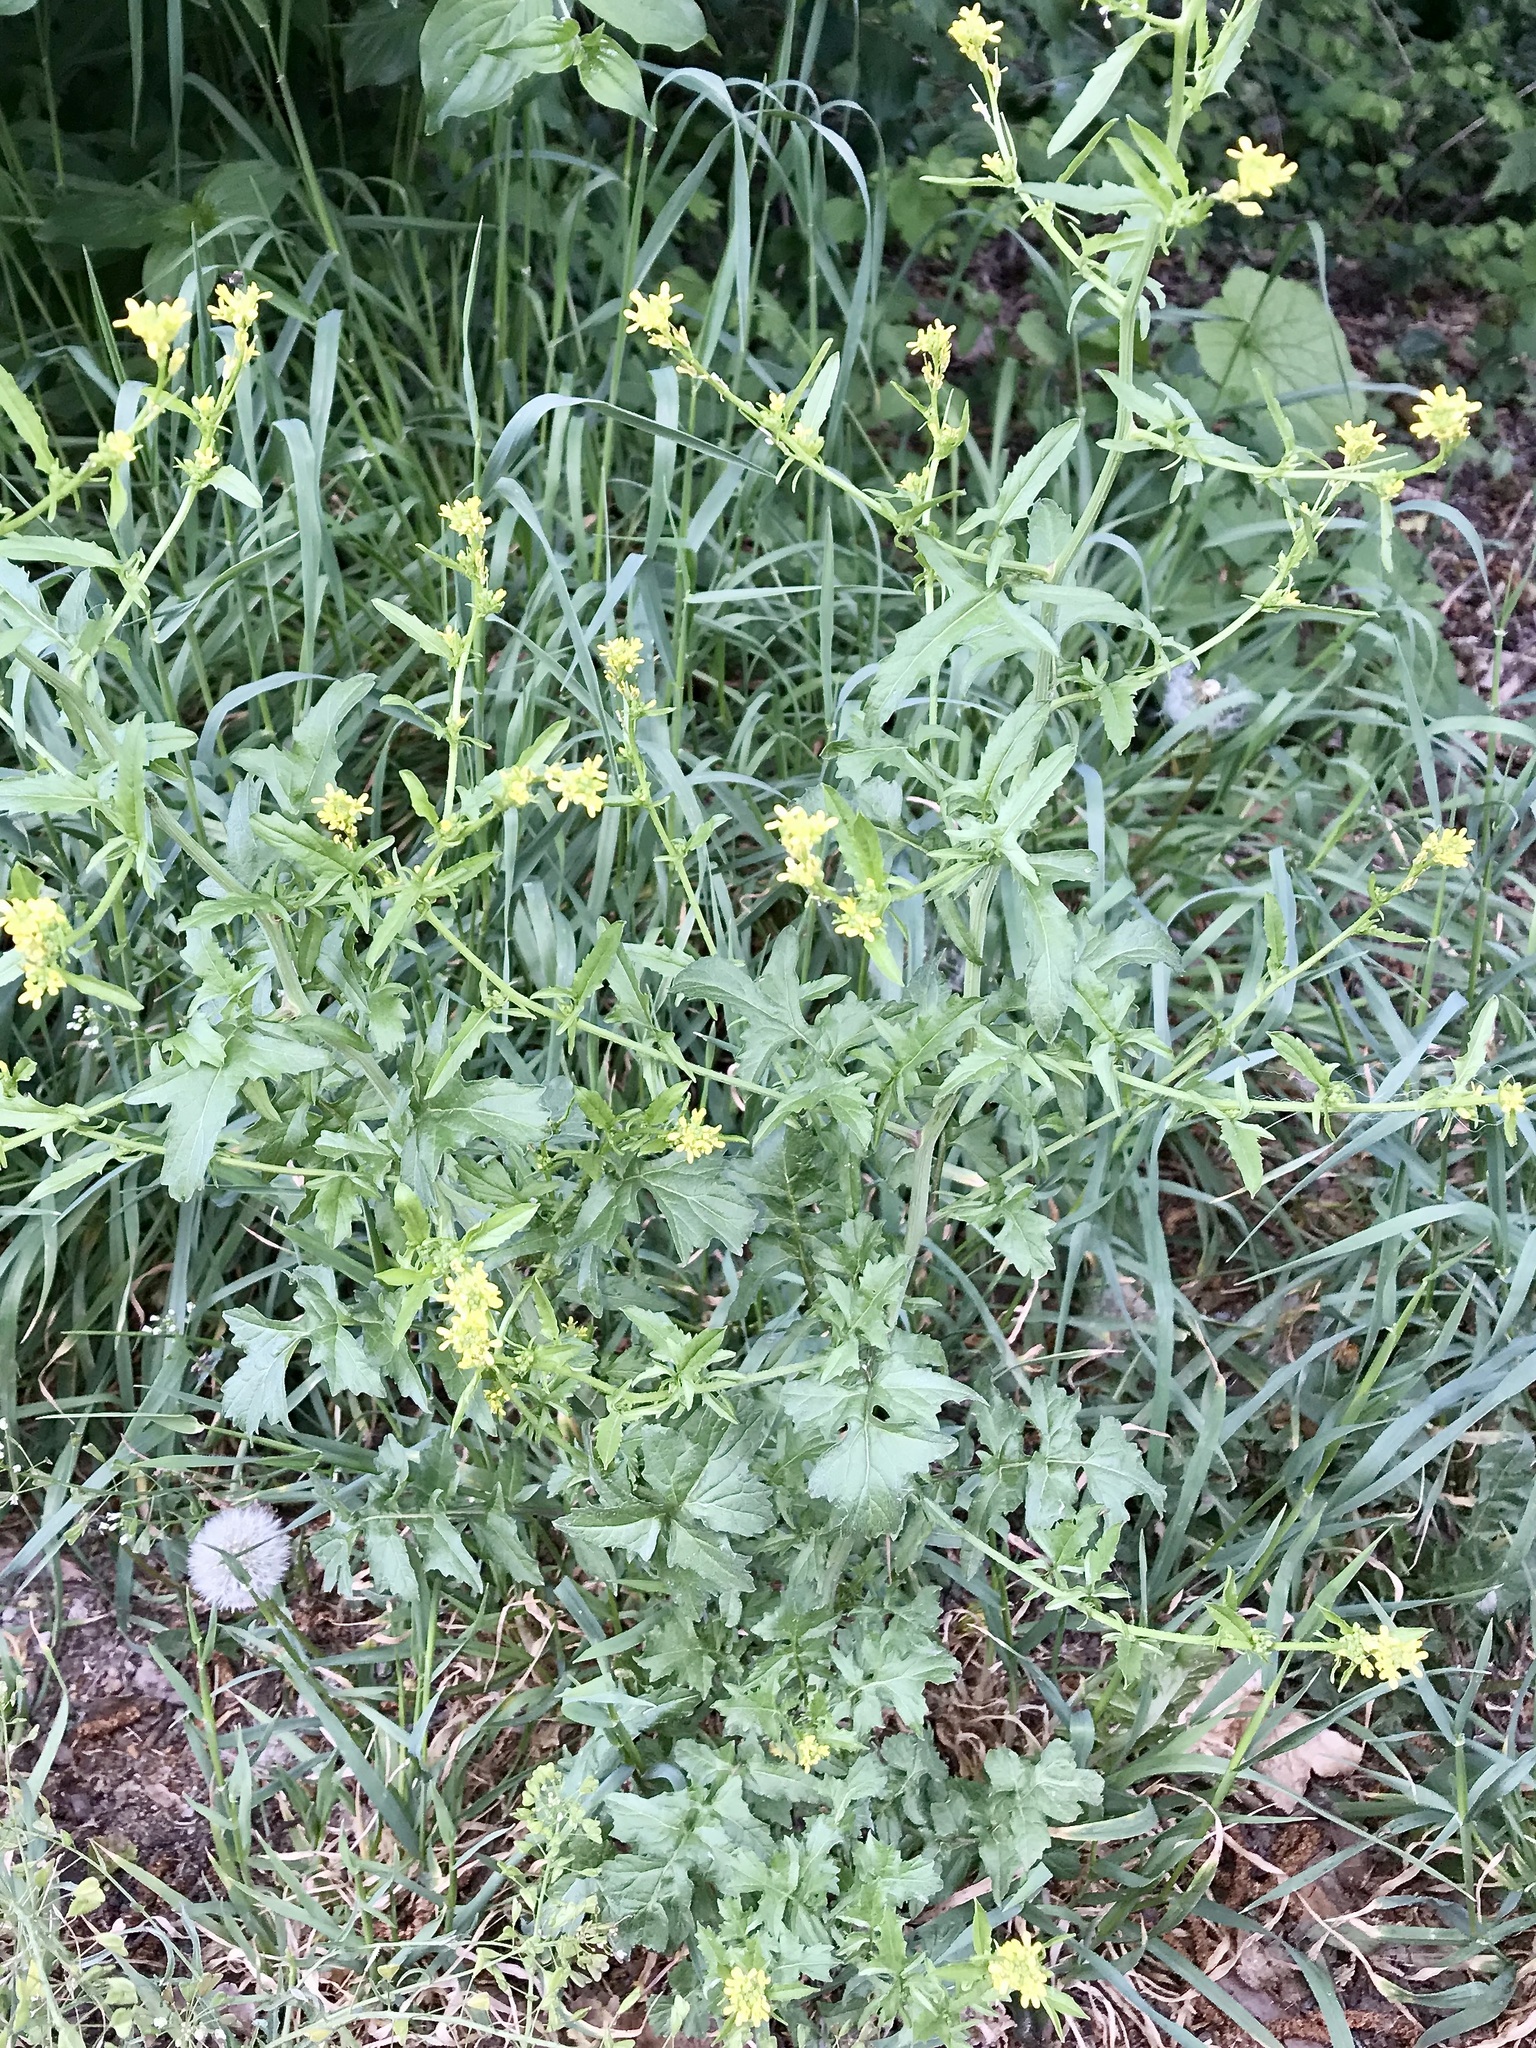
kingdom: Plantae
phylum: Tracheophyta
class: Magnoliopsida
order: Brassicales
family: Brassicaceae
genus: Sisymbrium
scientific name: Sisymbrium officinale
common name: Hedge mustard
